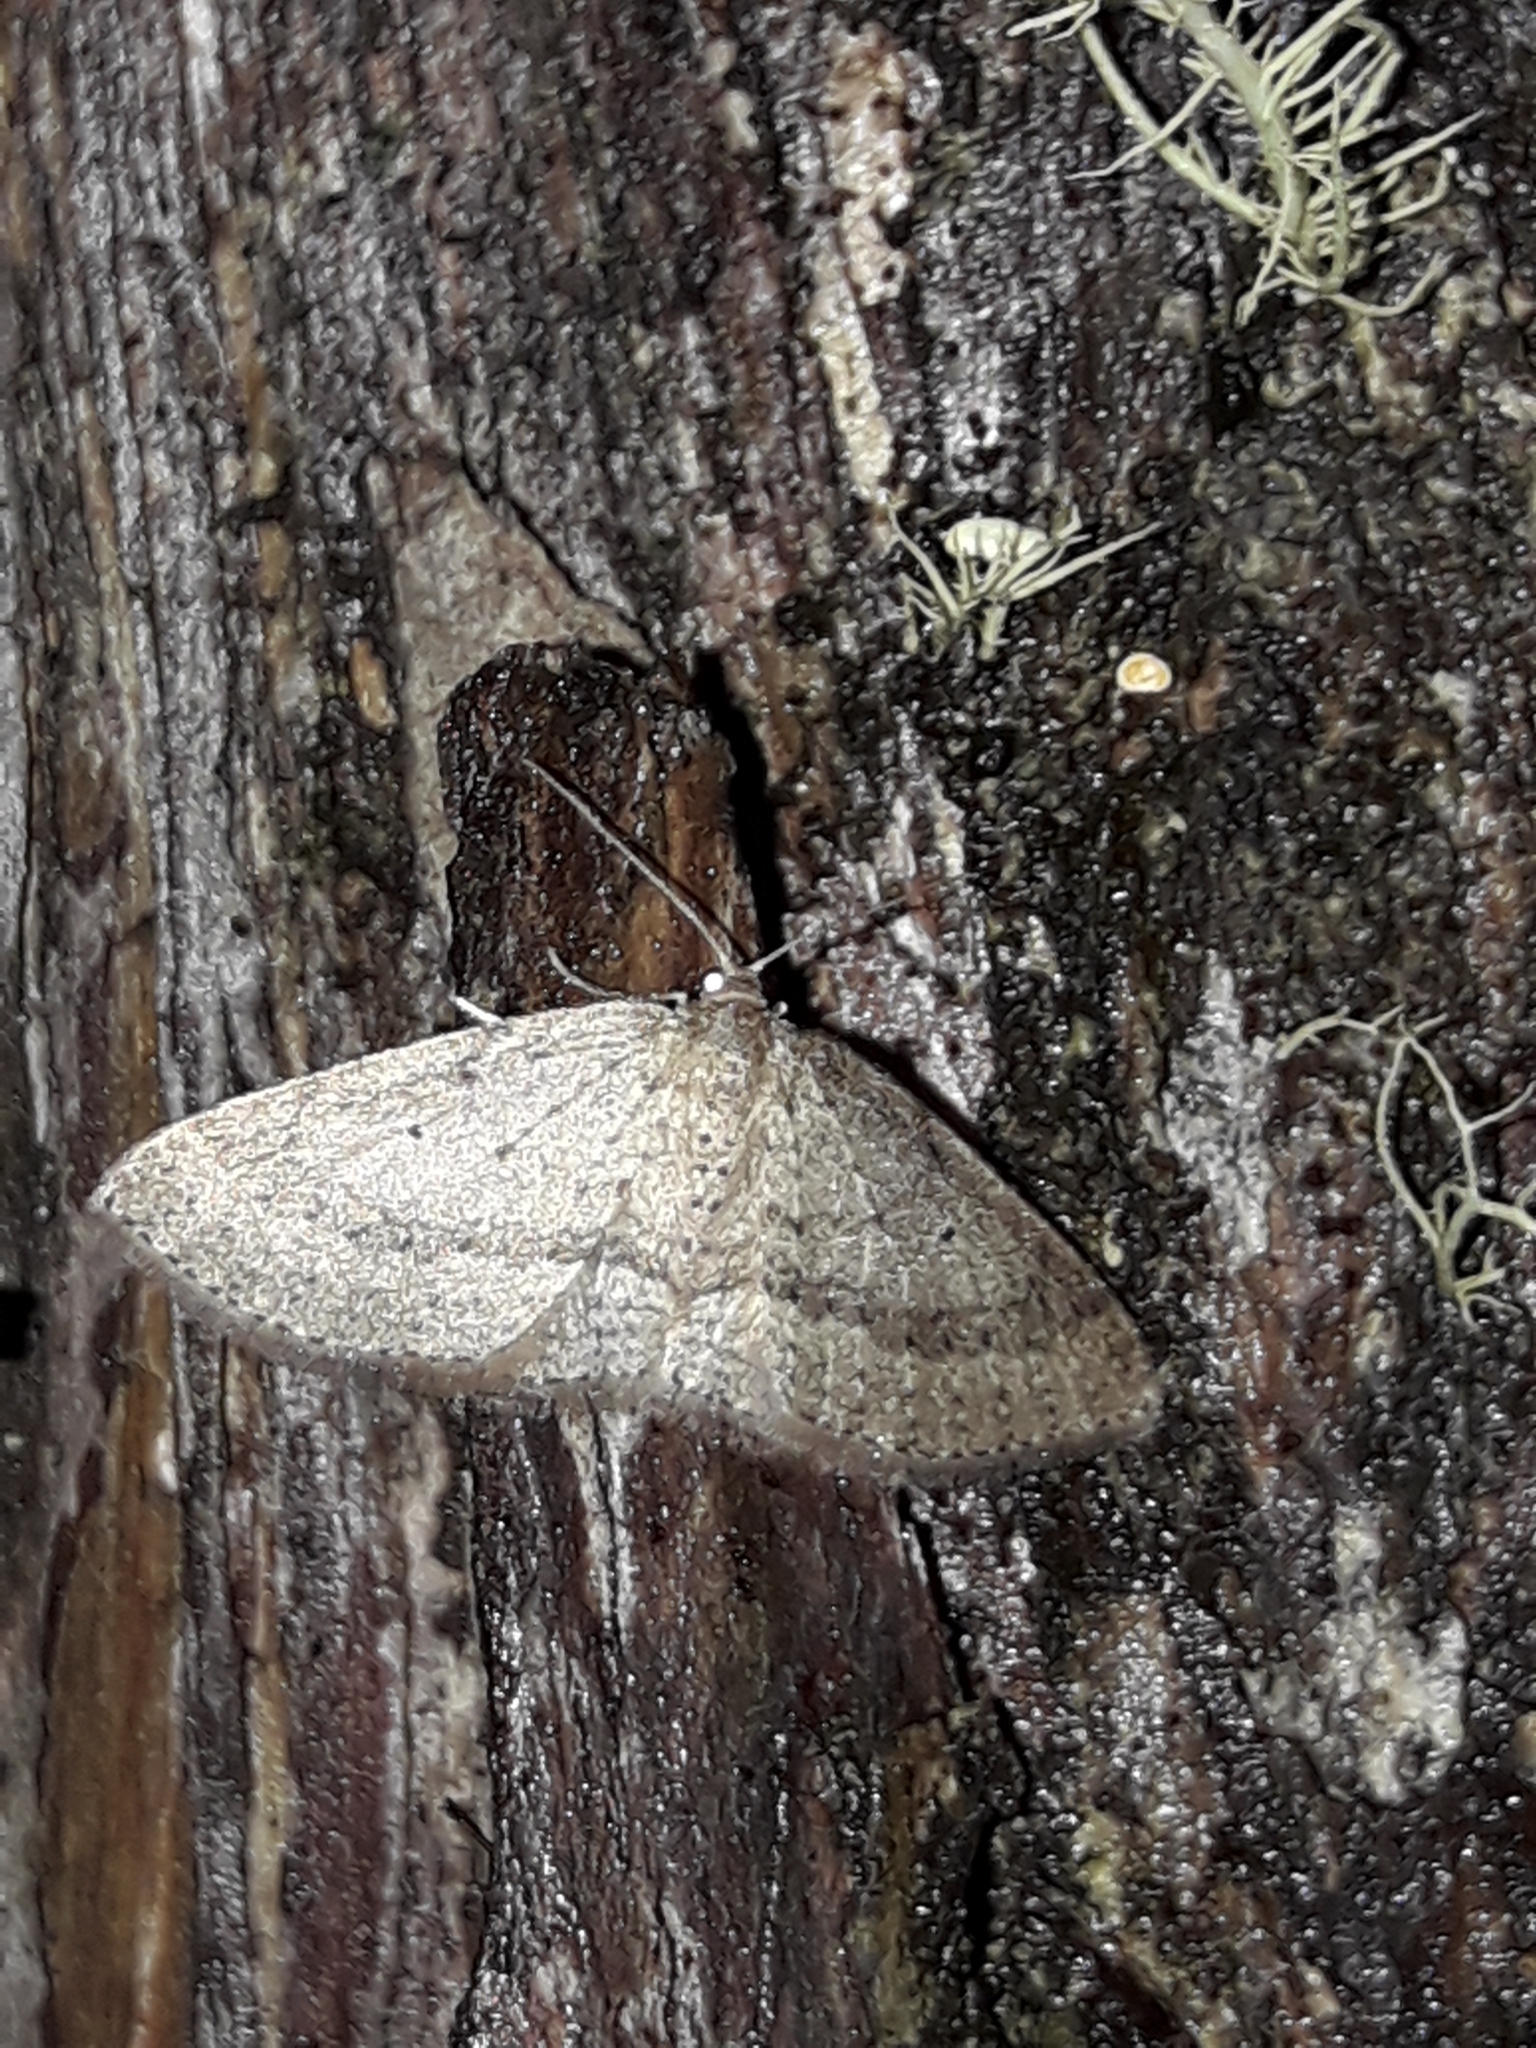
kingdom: Animalia
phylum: Arthropoda
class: Insecta
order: Lepidoptera
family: Geometridae
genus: Poecilasthena
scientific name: Poecilasthena schistaria
